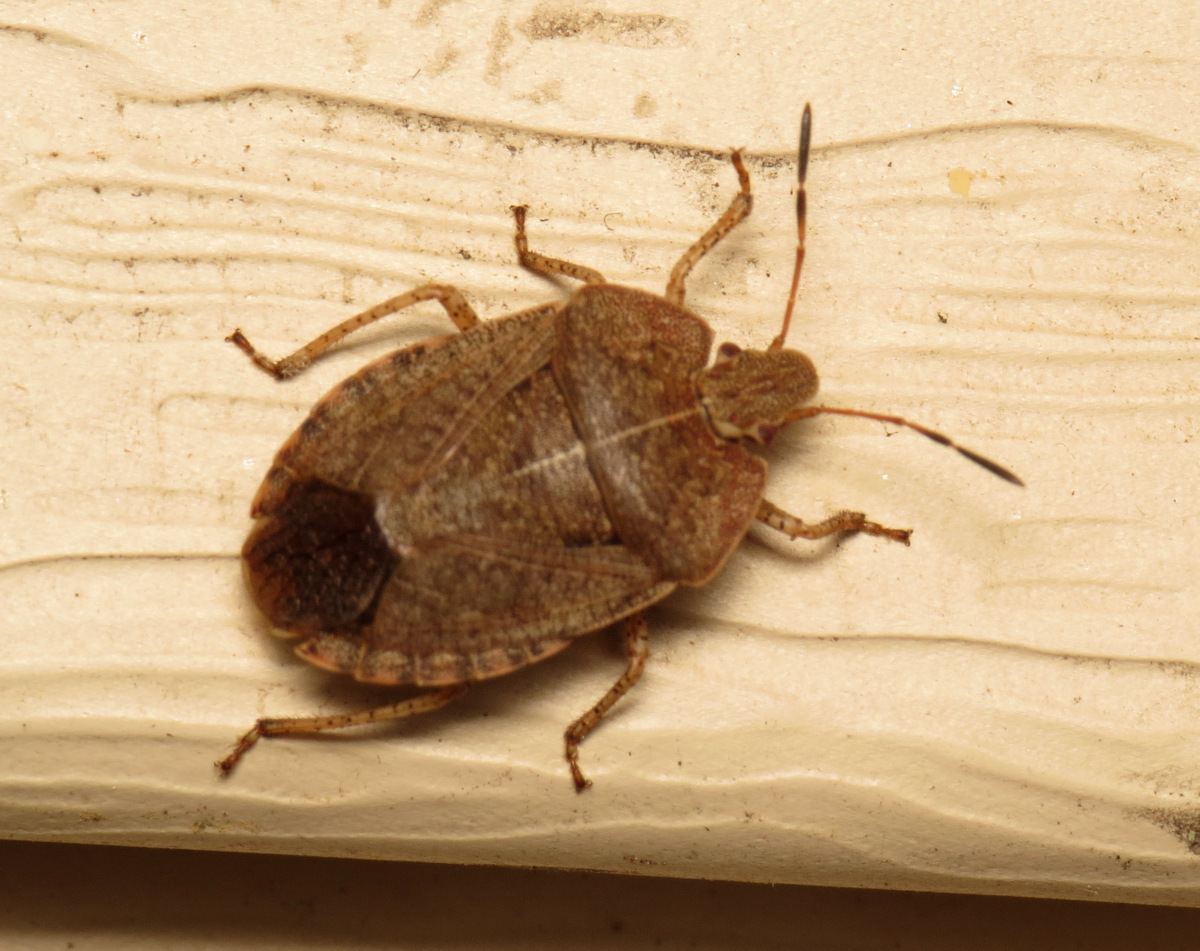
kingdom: Animalia
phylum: Arthropoda
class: Insecta
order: Hemiptera
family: Pentatomidae
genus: Menecles
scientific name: Menecles insertus
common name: Elf shoe stink bug
